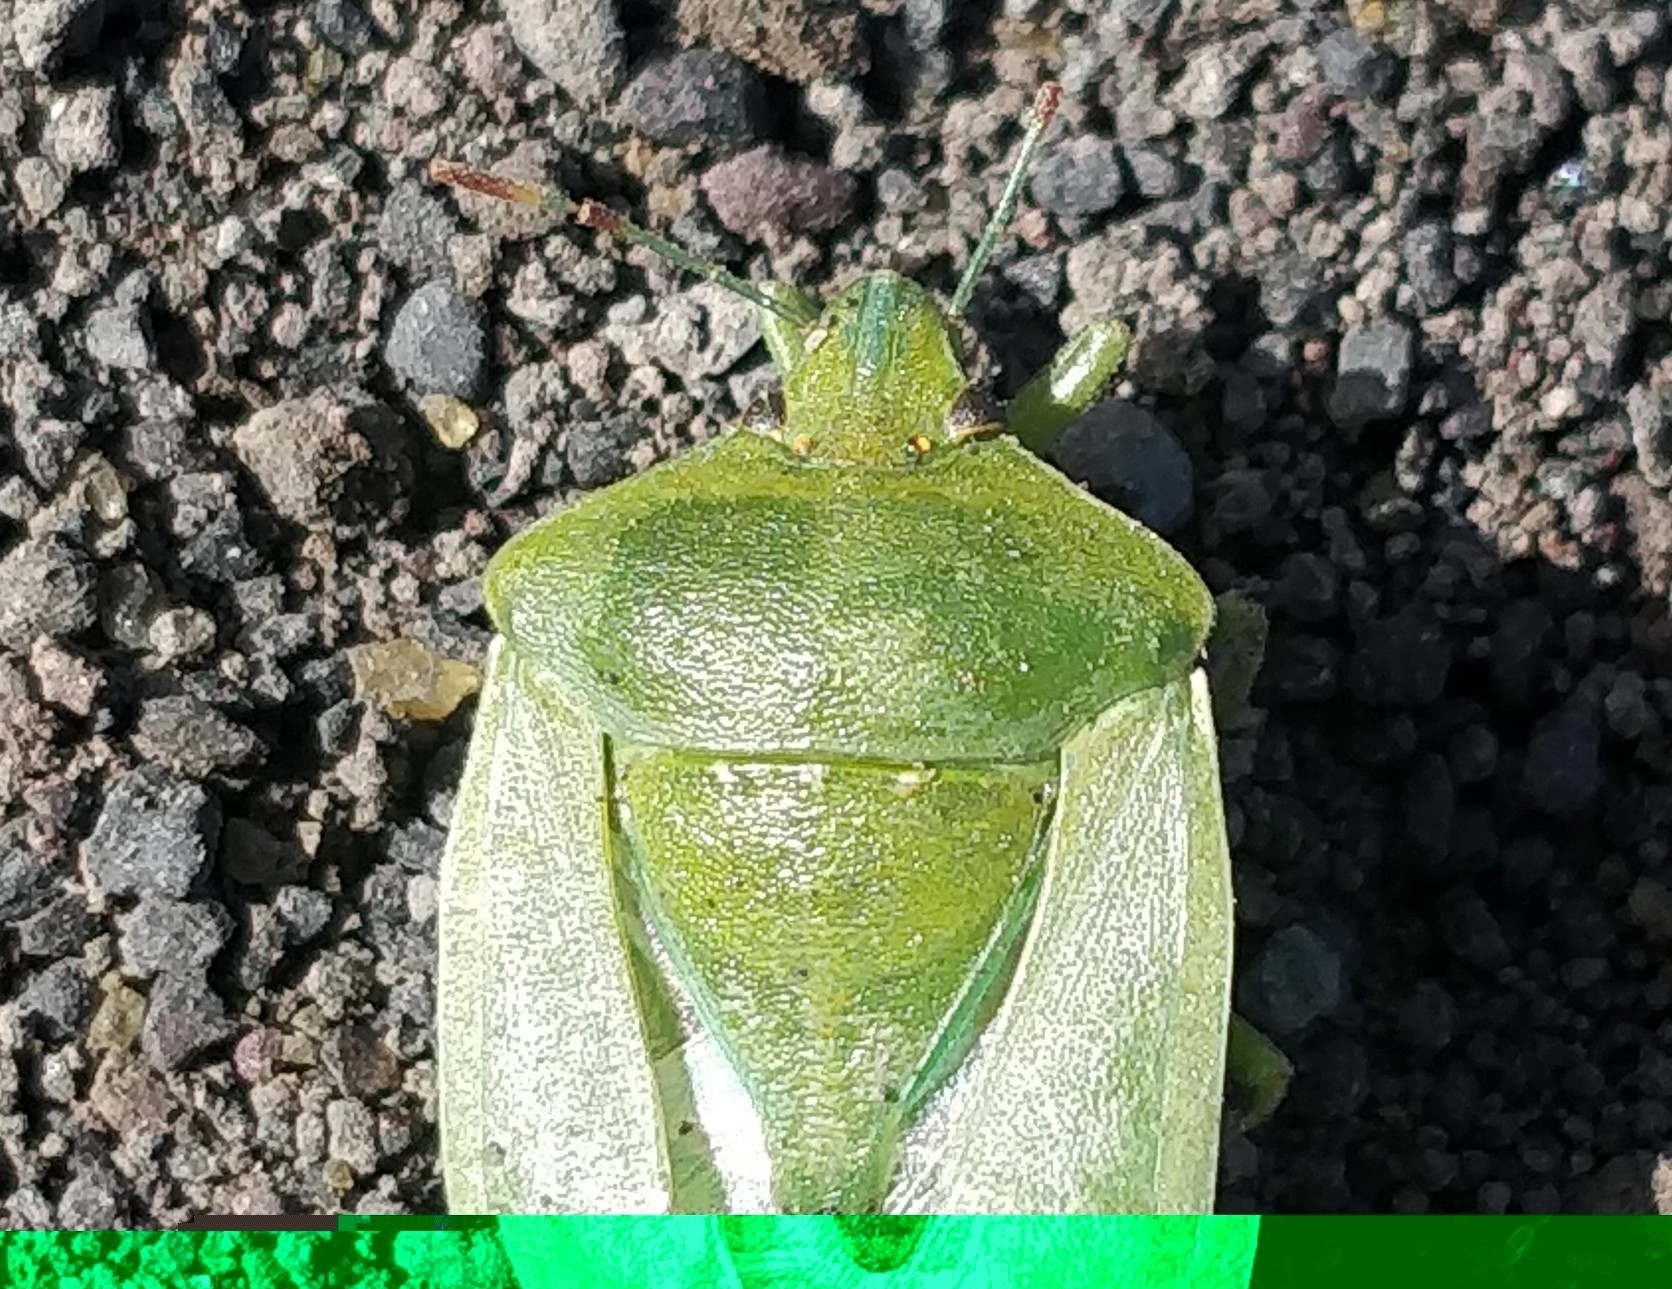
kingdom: Animalia
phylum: Arthropoda
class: Insecta
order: Hemiptera
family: Pentatomidae
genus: Nezara
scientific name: Nezara viridula
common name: Southern green stink bug
